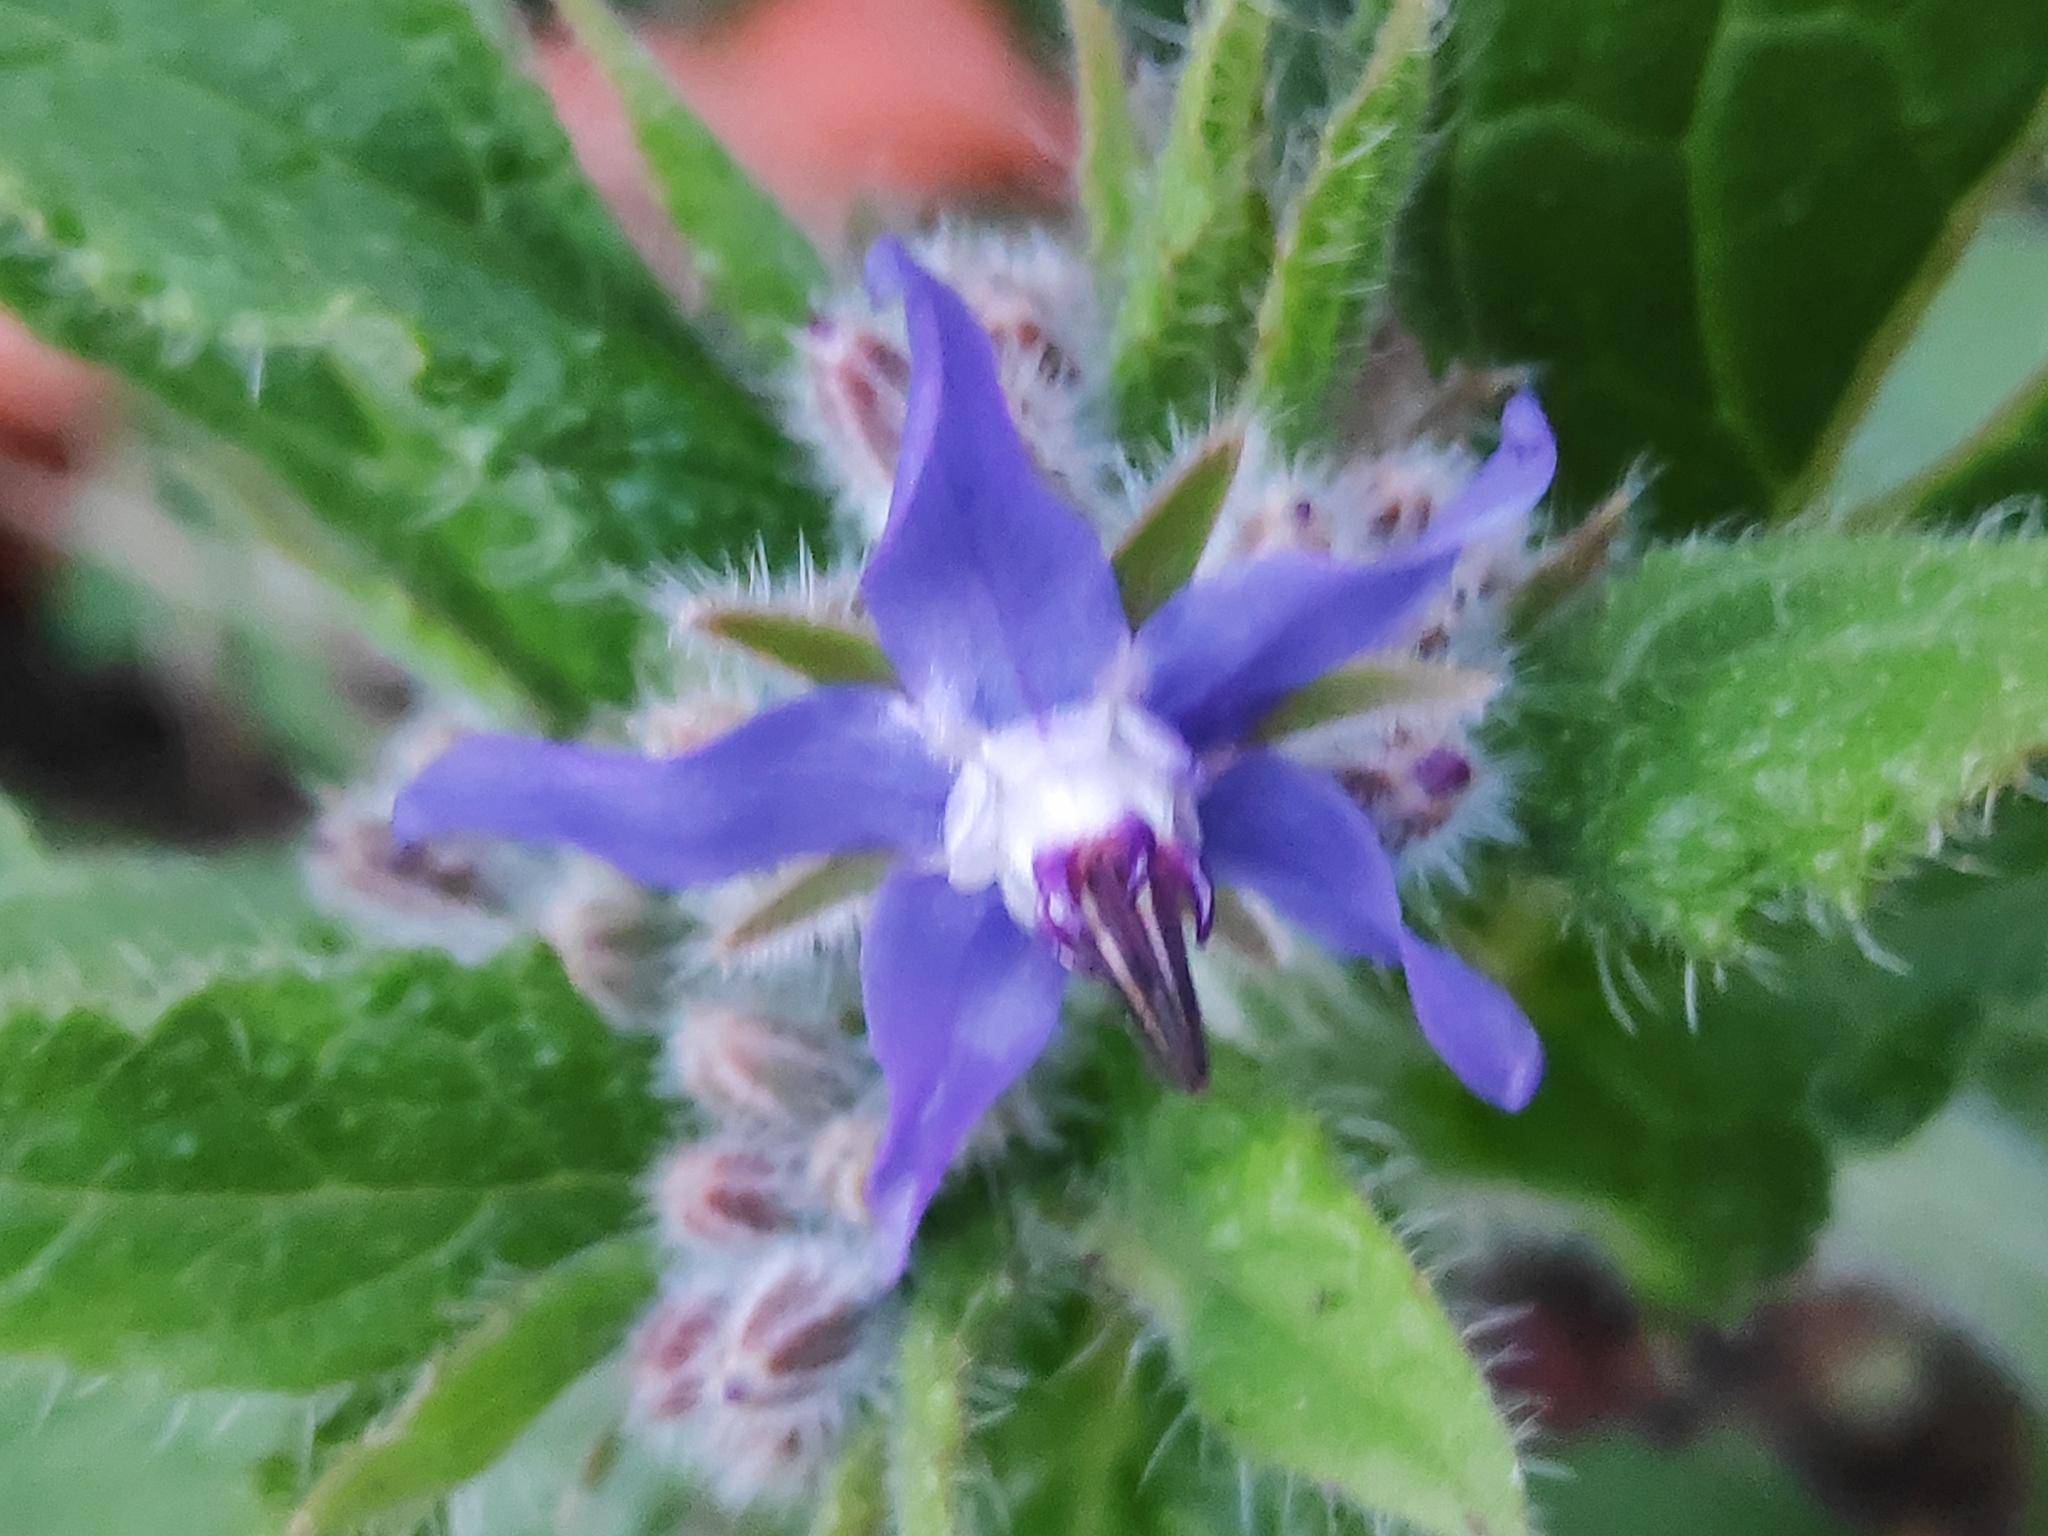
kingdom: Plantae
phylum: Tracheophyta
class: Magnoliopsida
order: Boraginales
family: Boraginaceae
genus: Borago
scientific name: Borago officinalis
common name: Borage
